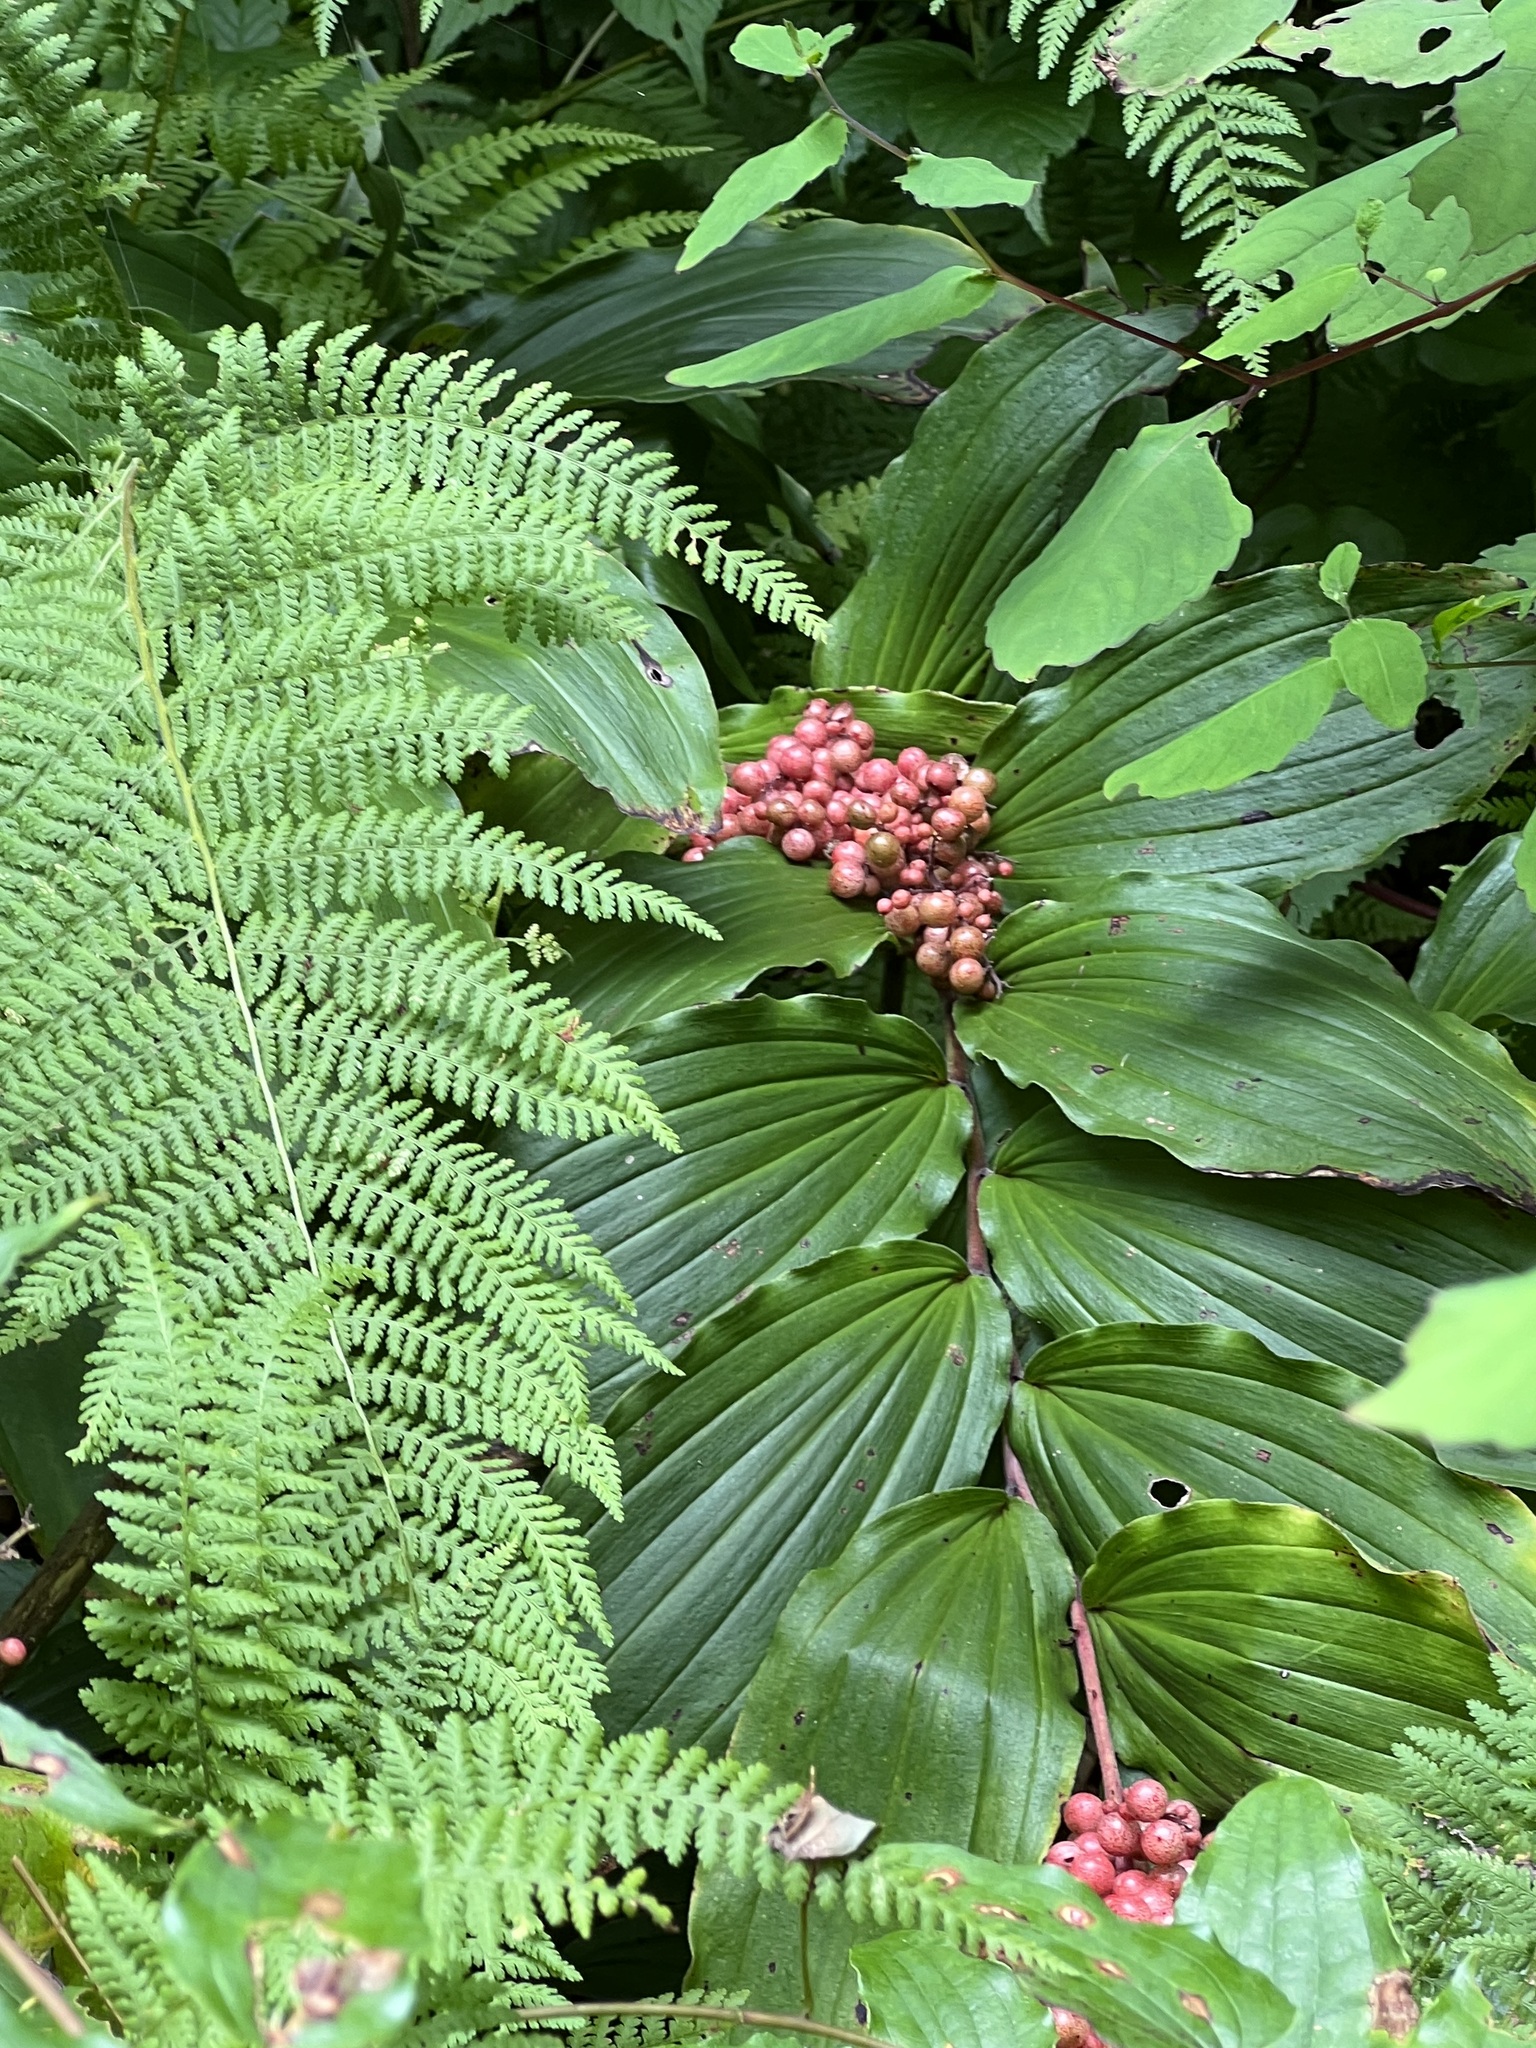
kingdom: Plantae
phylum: Tracheophyta
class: Liliopsida
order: Asparagales
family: Asparagaceae
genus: Maianthemum
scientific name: Maianthemum racemosum
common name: False spikenard
